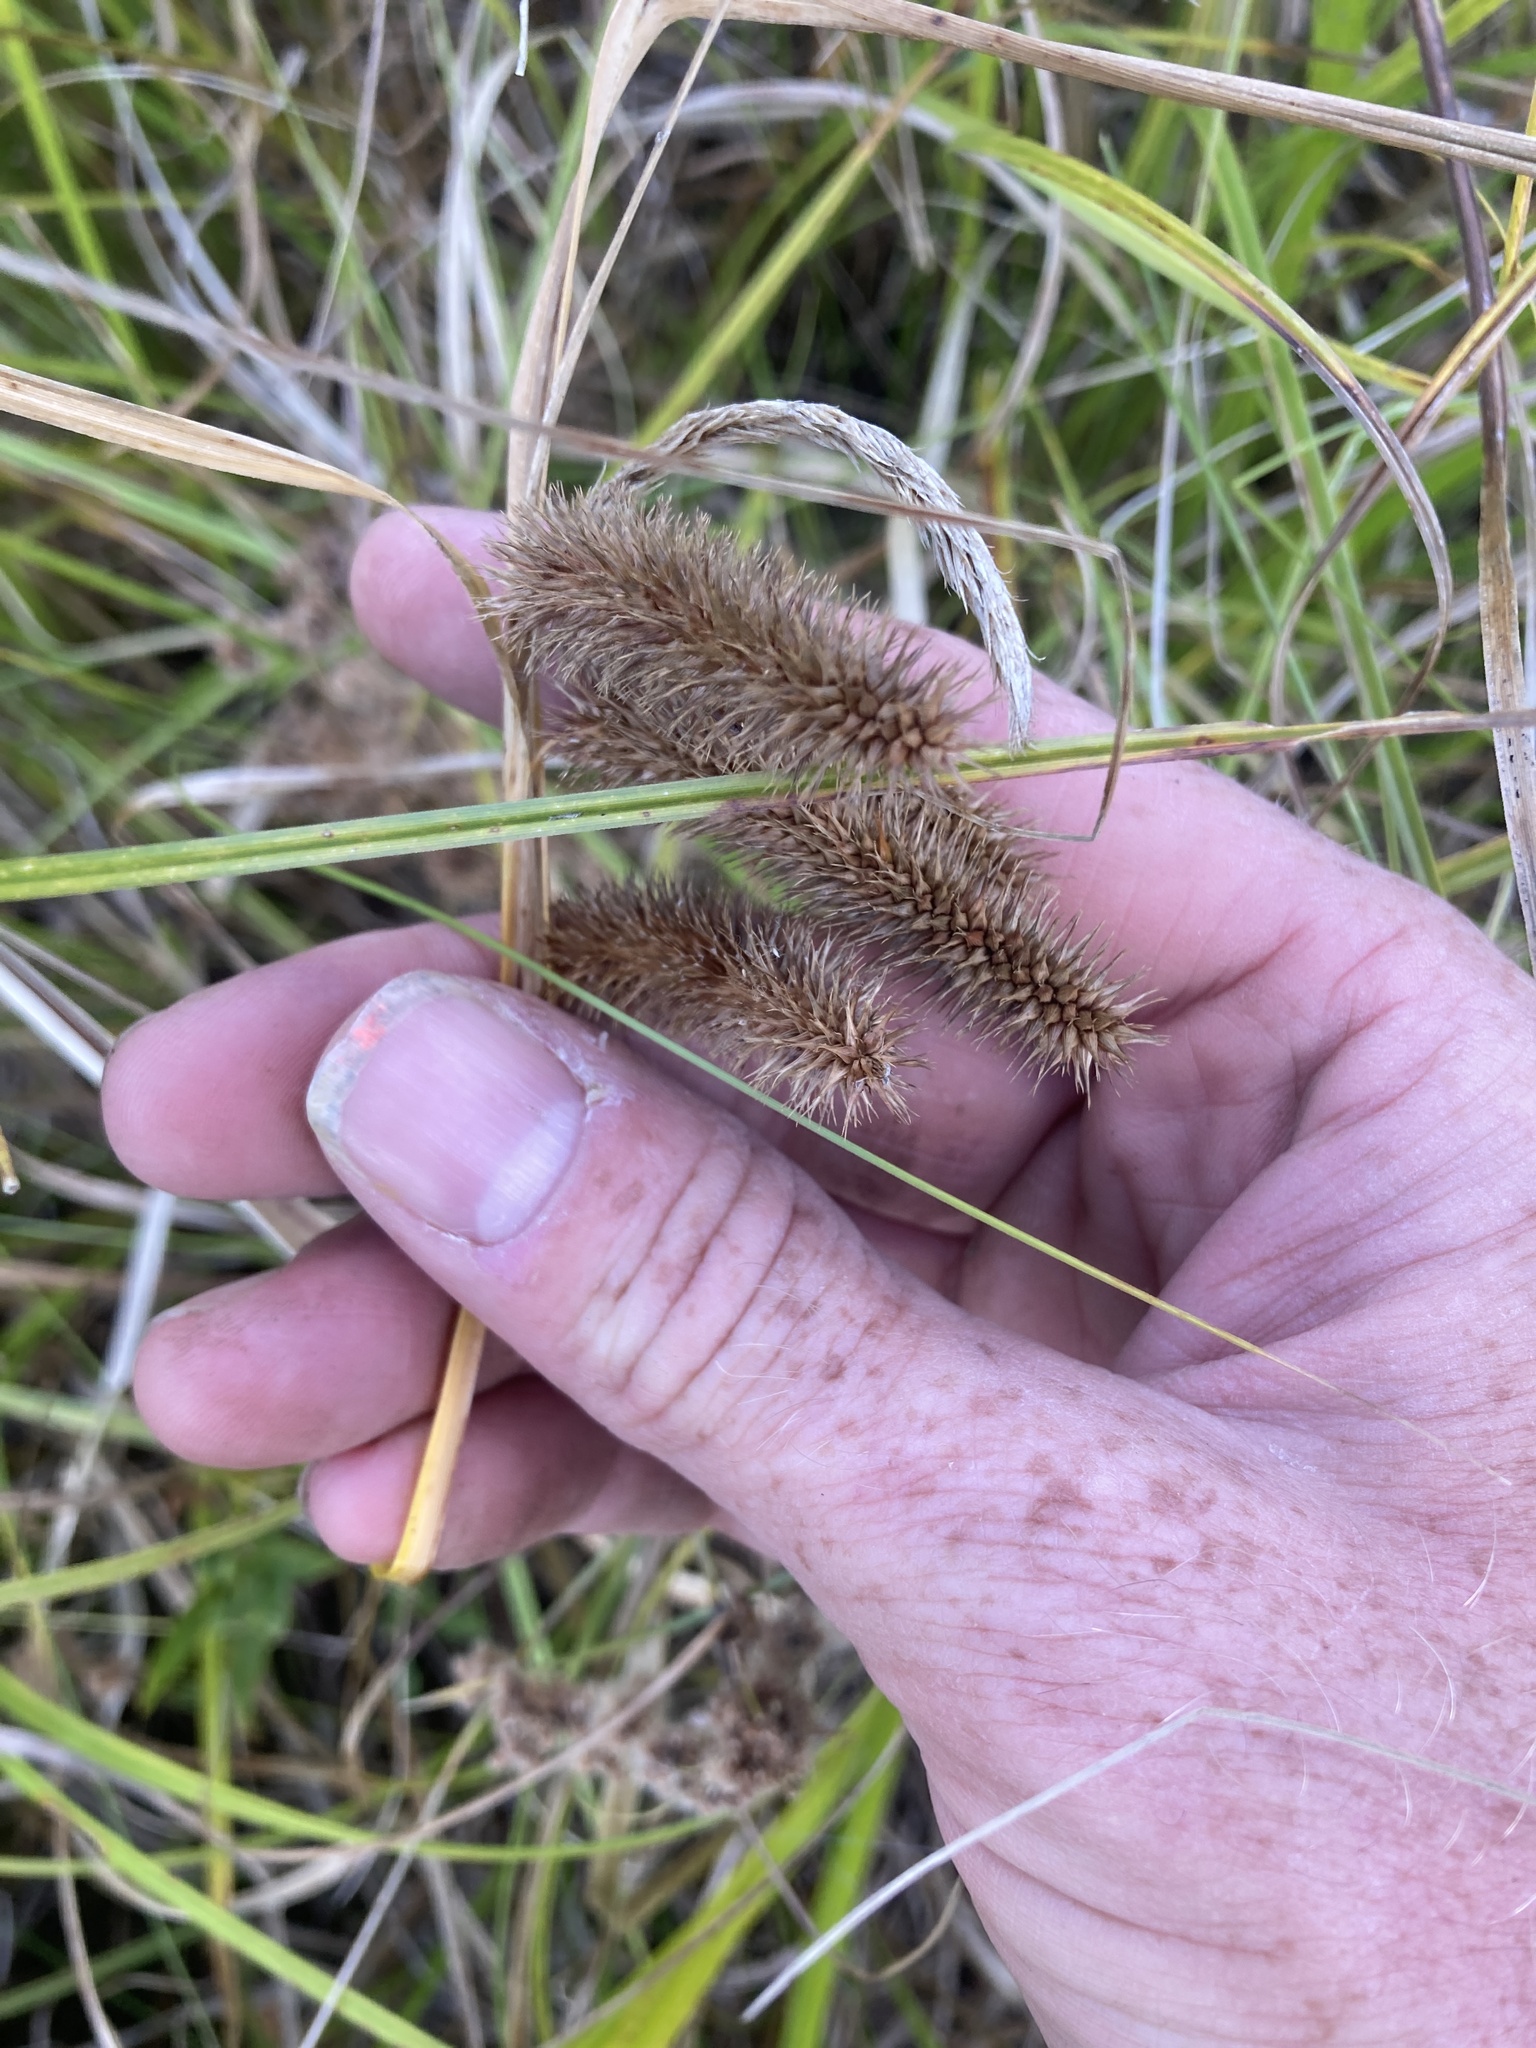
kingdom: Plantae
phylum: Tracheophyta
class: Liliopsida
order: Poales
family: Cyperaceae
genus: Carex
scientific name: Carex comosa
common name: Bristly sedge
